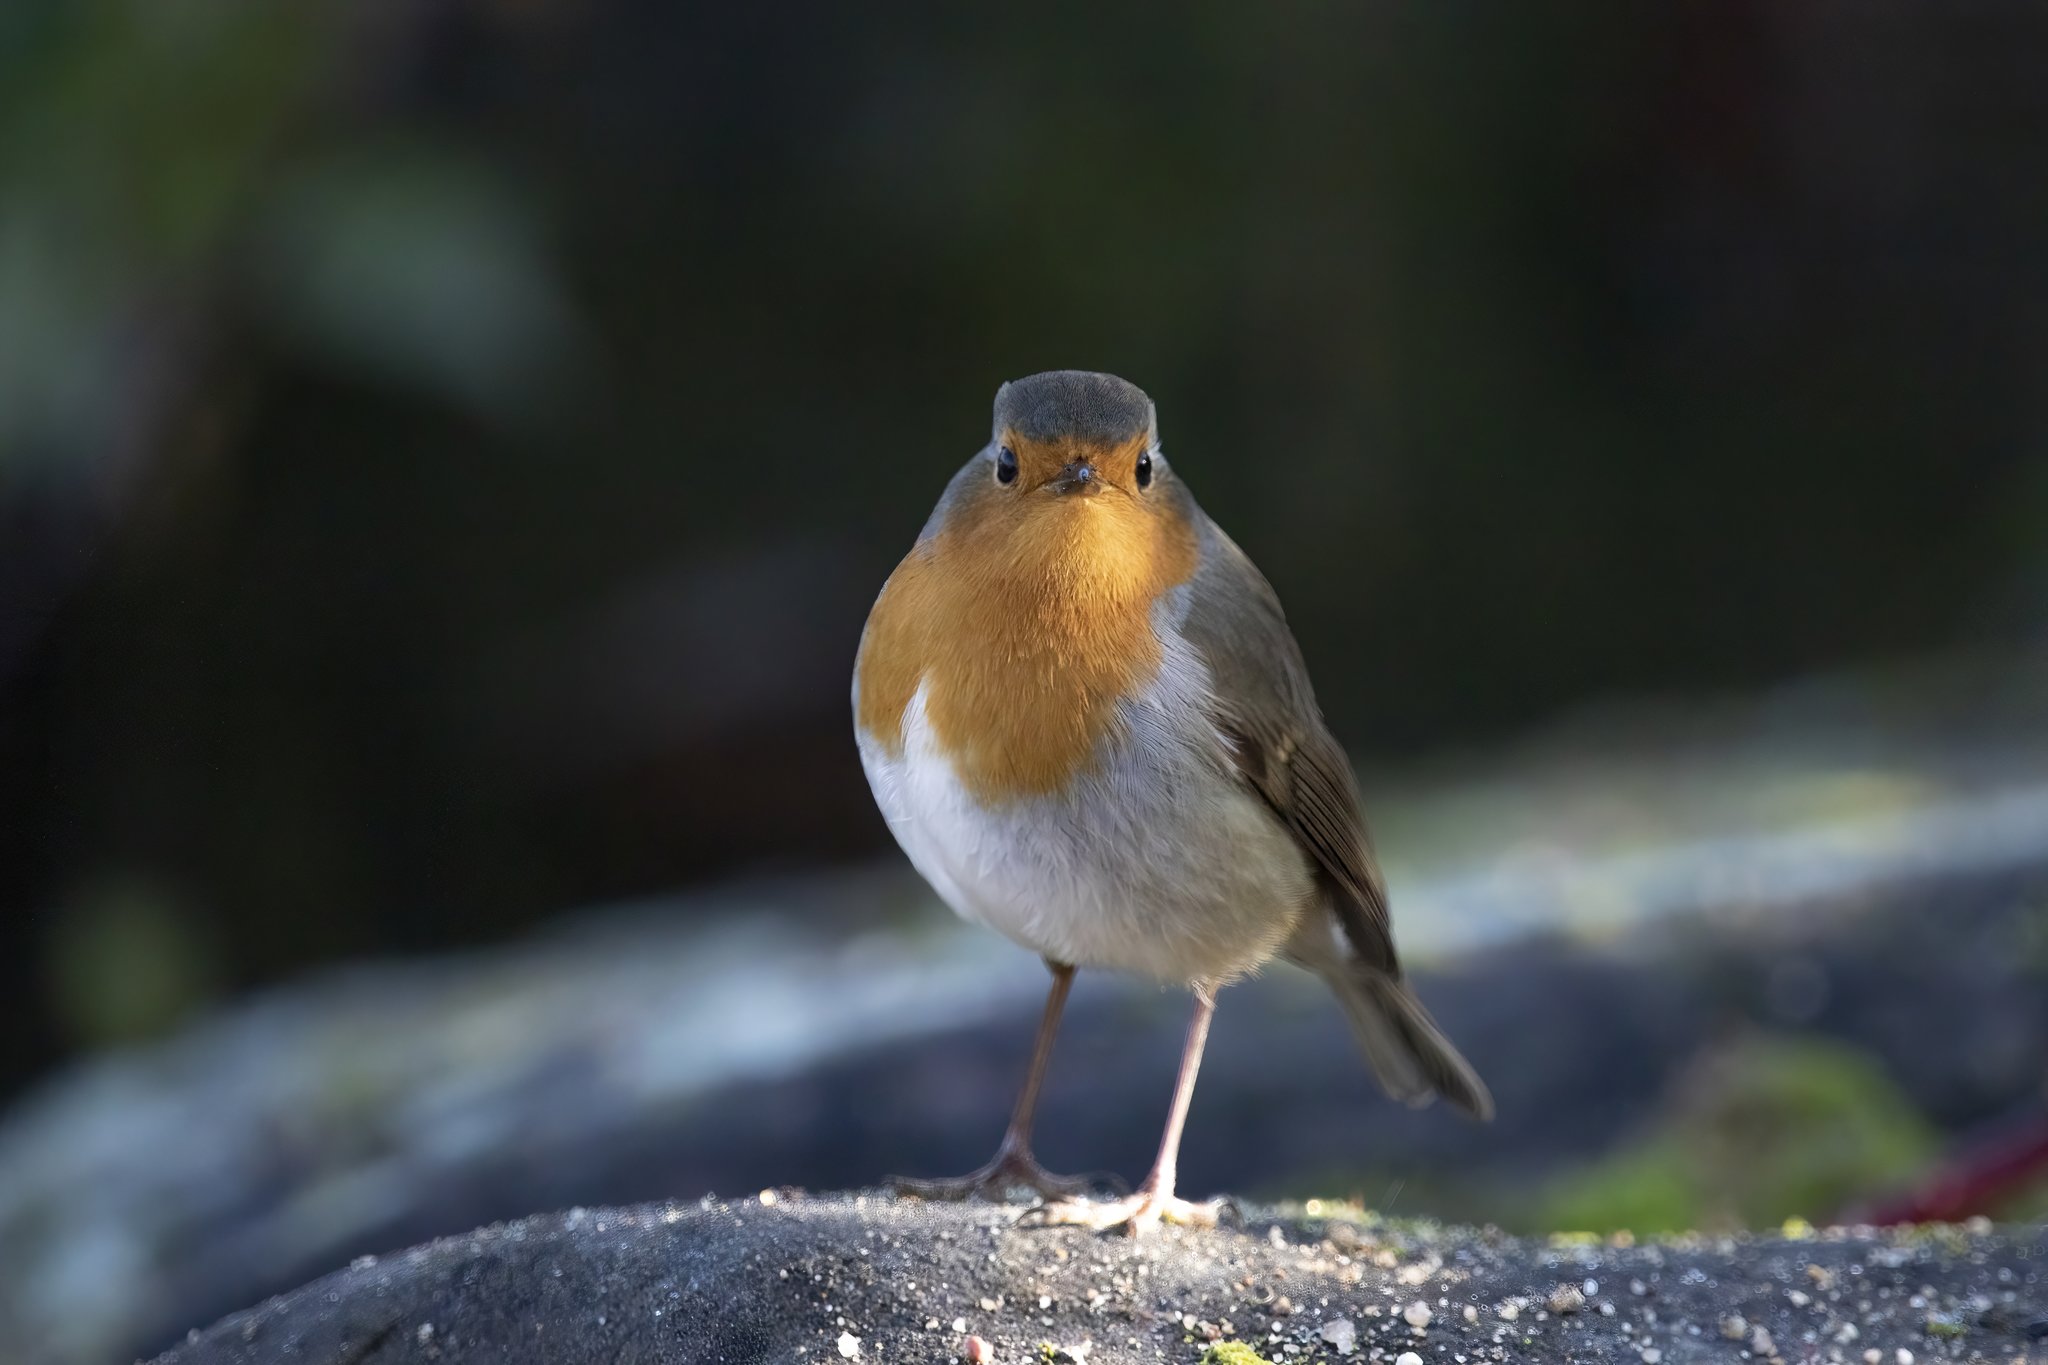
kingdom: Animalia
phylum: Chordata
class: Aves
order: Passeriformes
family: Muscicapidae
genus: Erithacus
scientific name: Erithacus rubecula
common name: European robin
